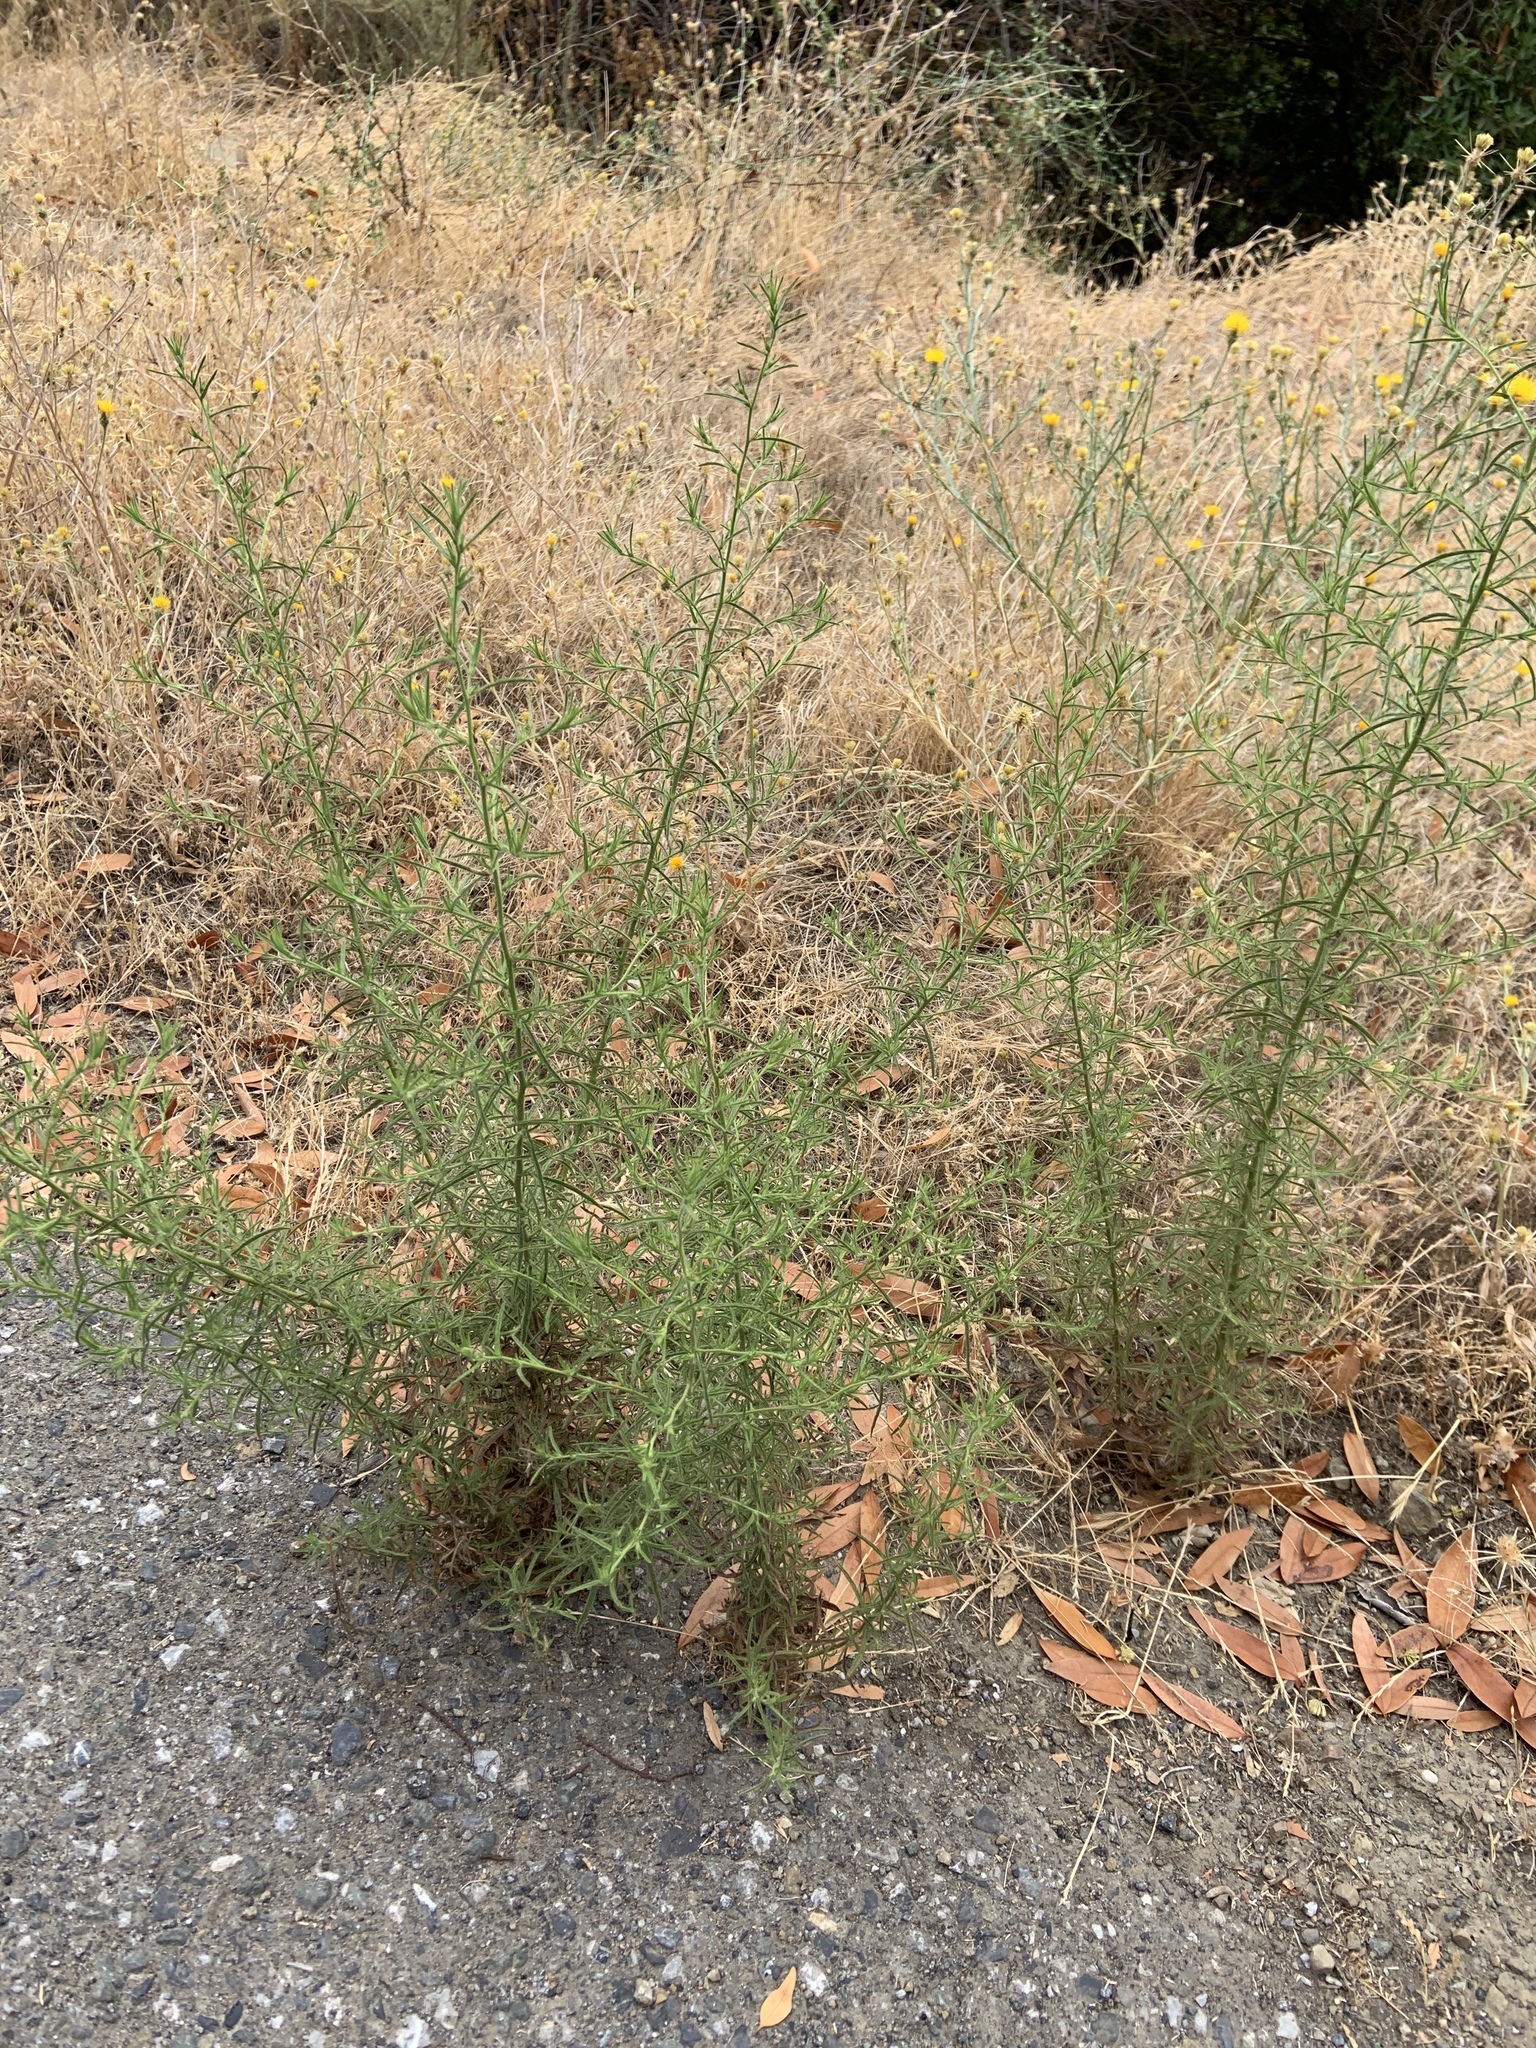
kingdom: Plantae
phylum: Tracheophyta
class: Magnoliopsida
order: Asterales
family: Asteraceae
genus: Dittrichia
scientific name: Dittrichia graveolens
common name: Stinking fleabane
